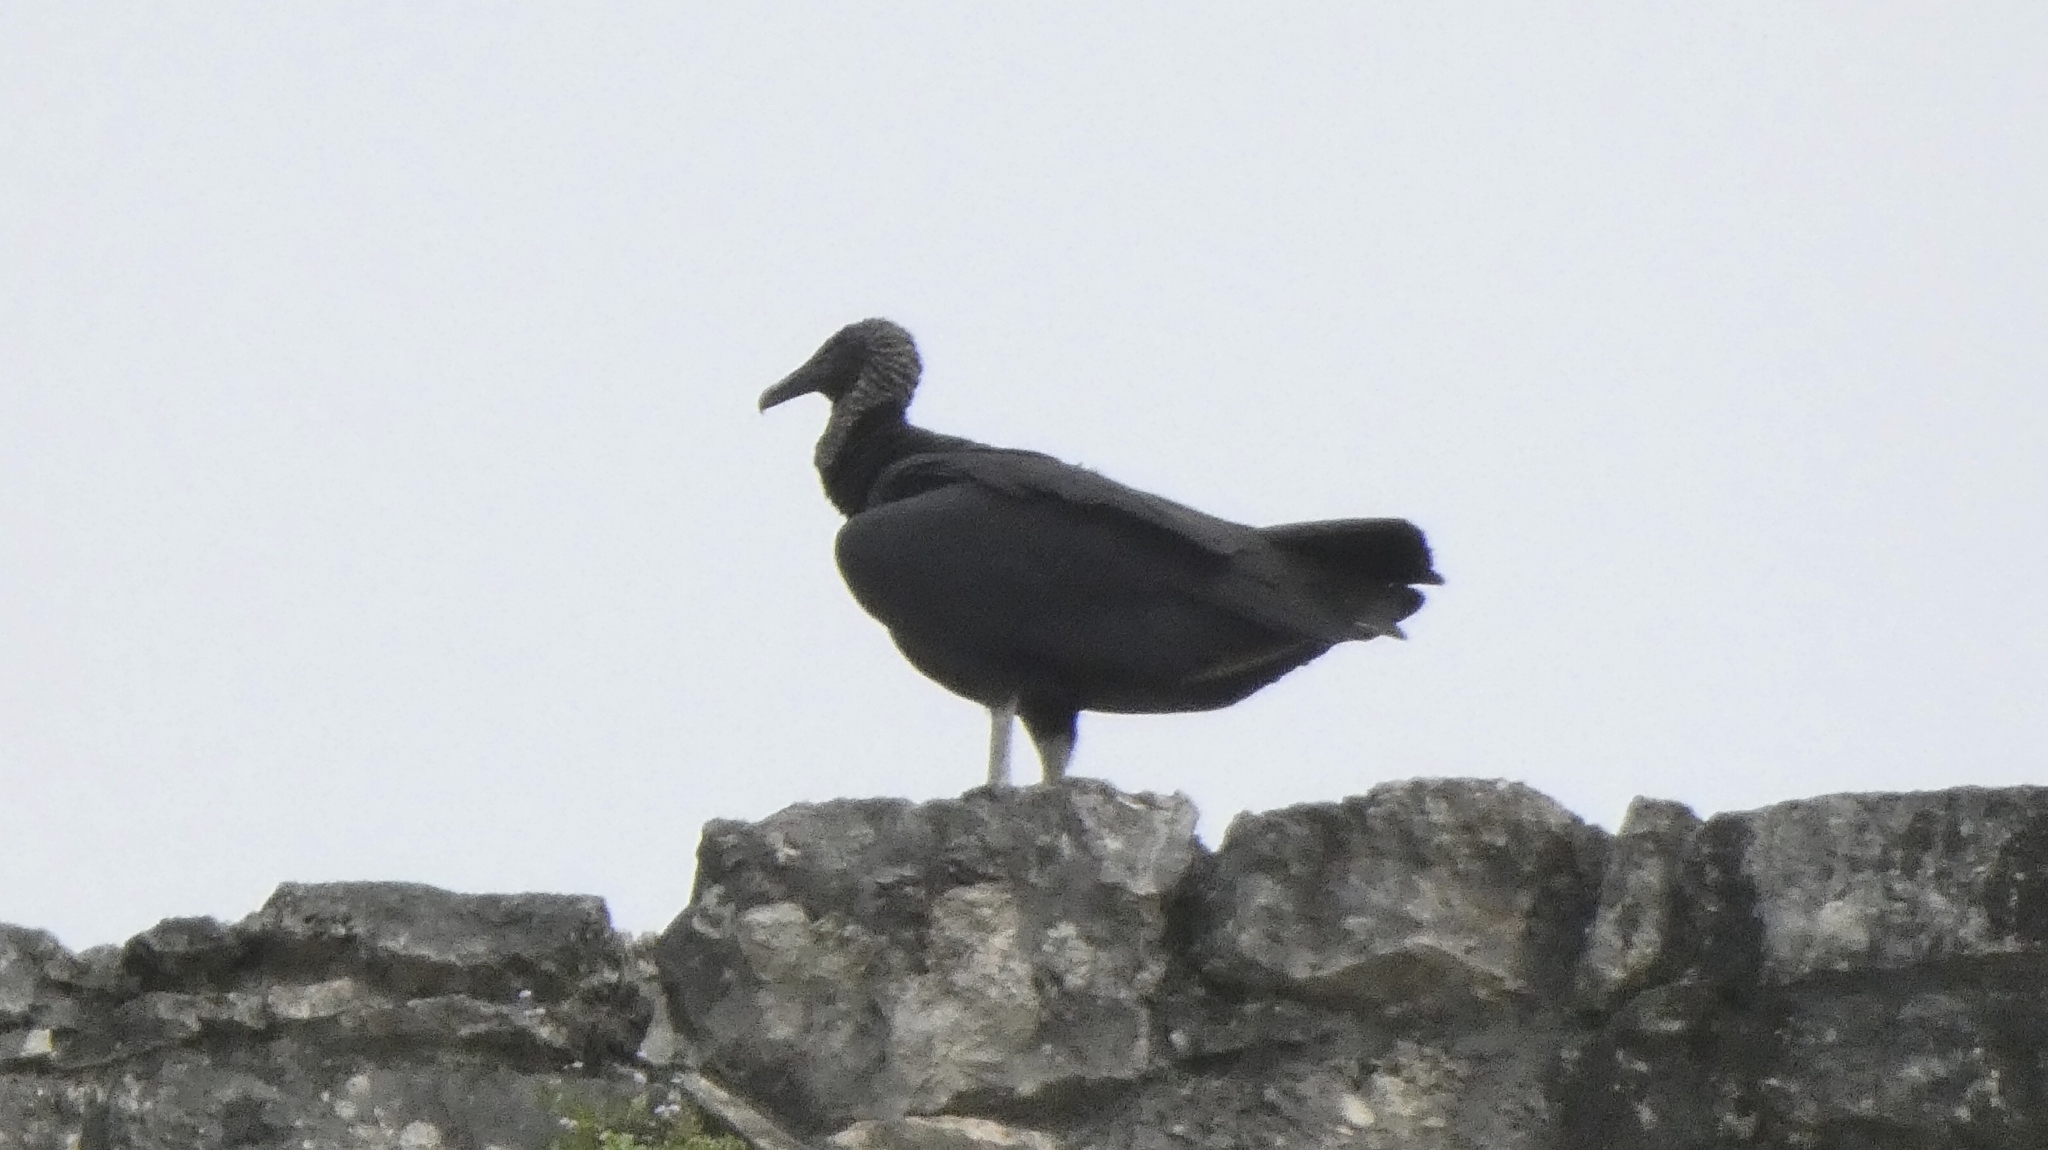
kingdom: Animalia
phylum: Chordata
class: Aves
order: Accipitriformes
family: Cathartidae
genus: Coragyps
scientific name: Coragyps atratus
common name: Black vulture
